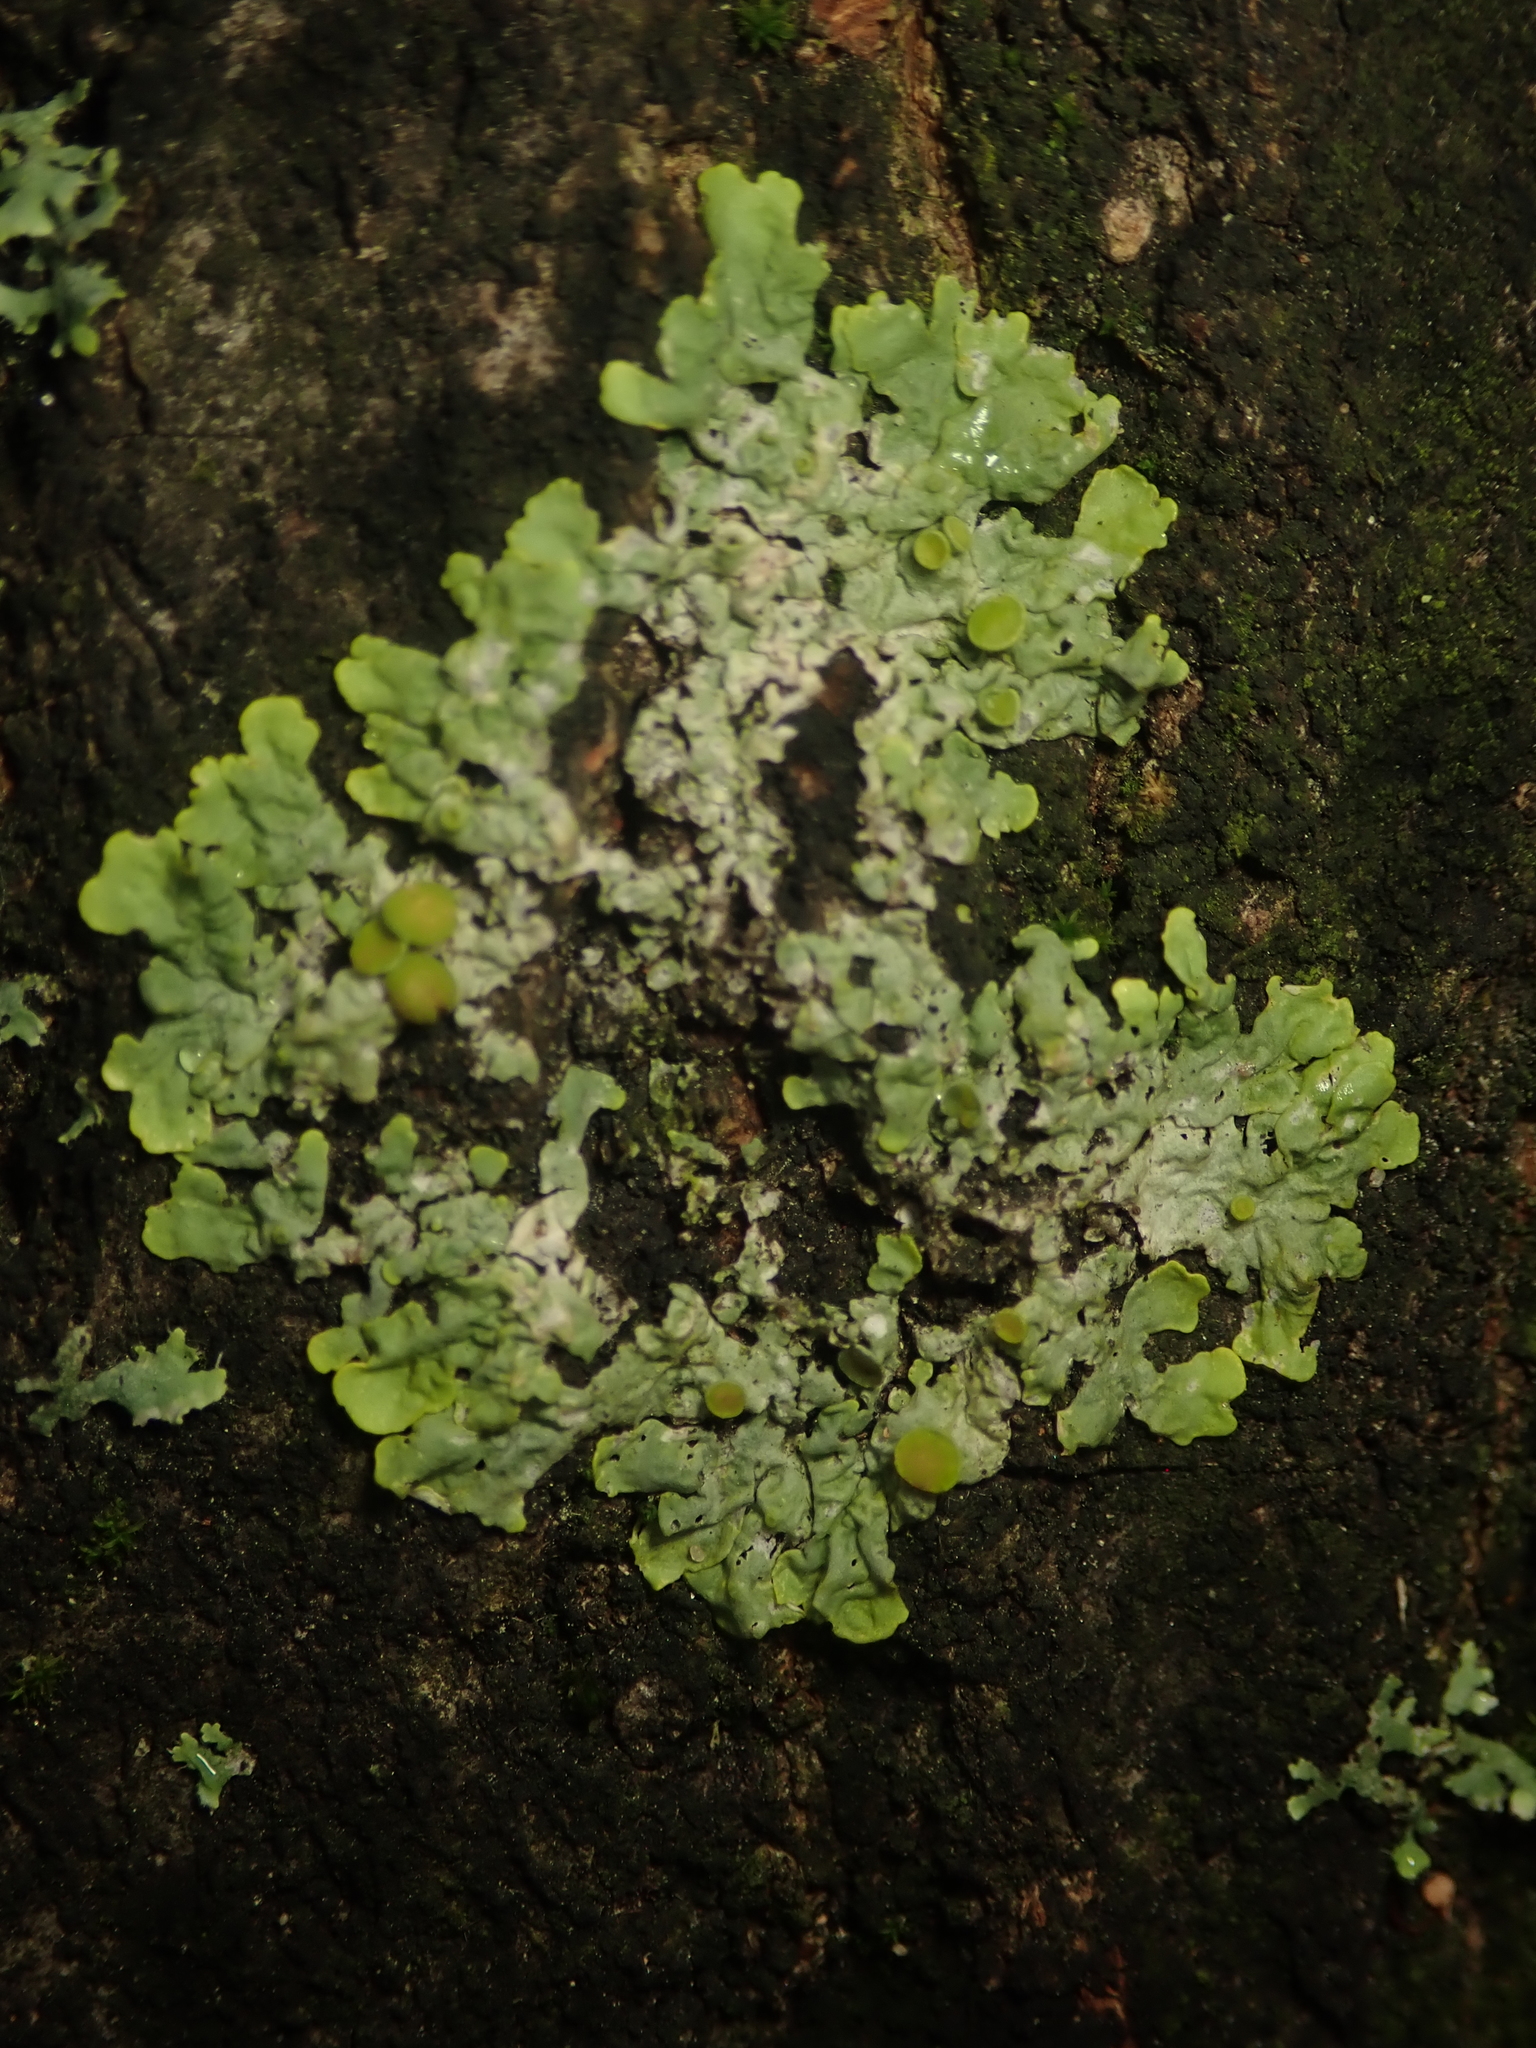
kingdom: Fungi
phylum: Ascomycota
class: Lecanoromycetes
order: Teloschistales
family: Teloschistaceae
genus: Xanthoria
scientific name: Xanthoria parietina
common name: Common orange lichen
